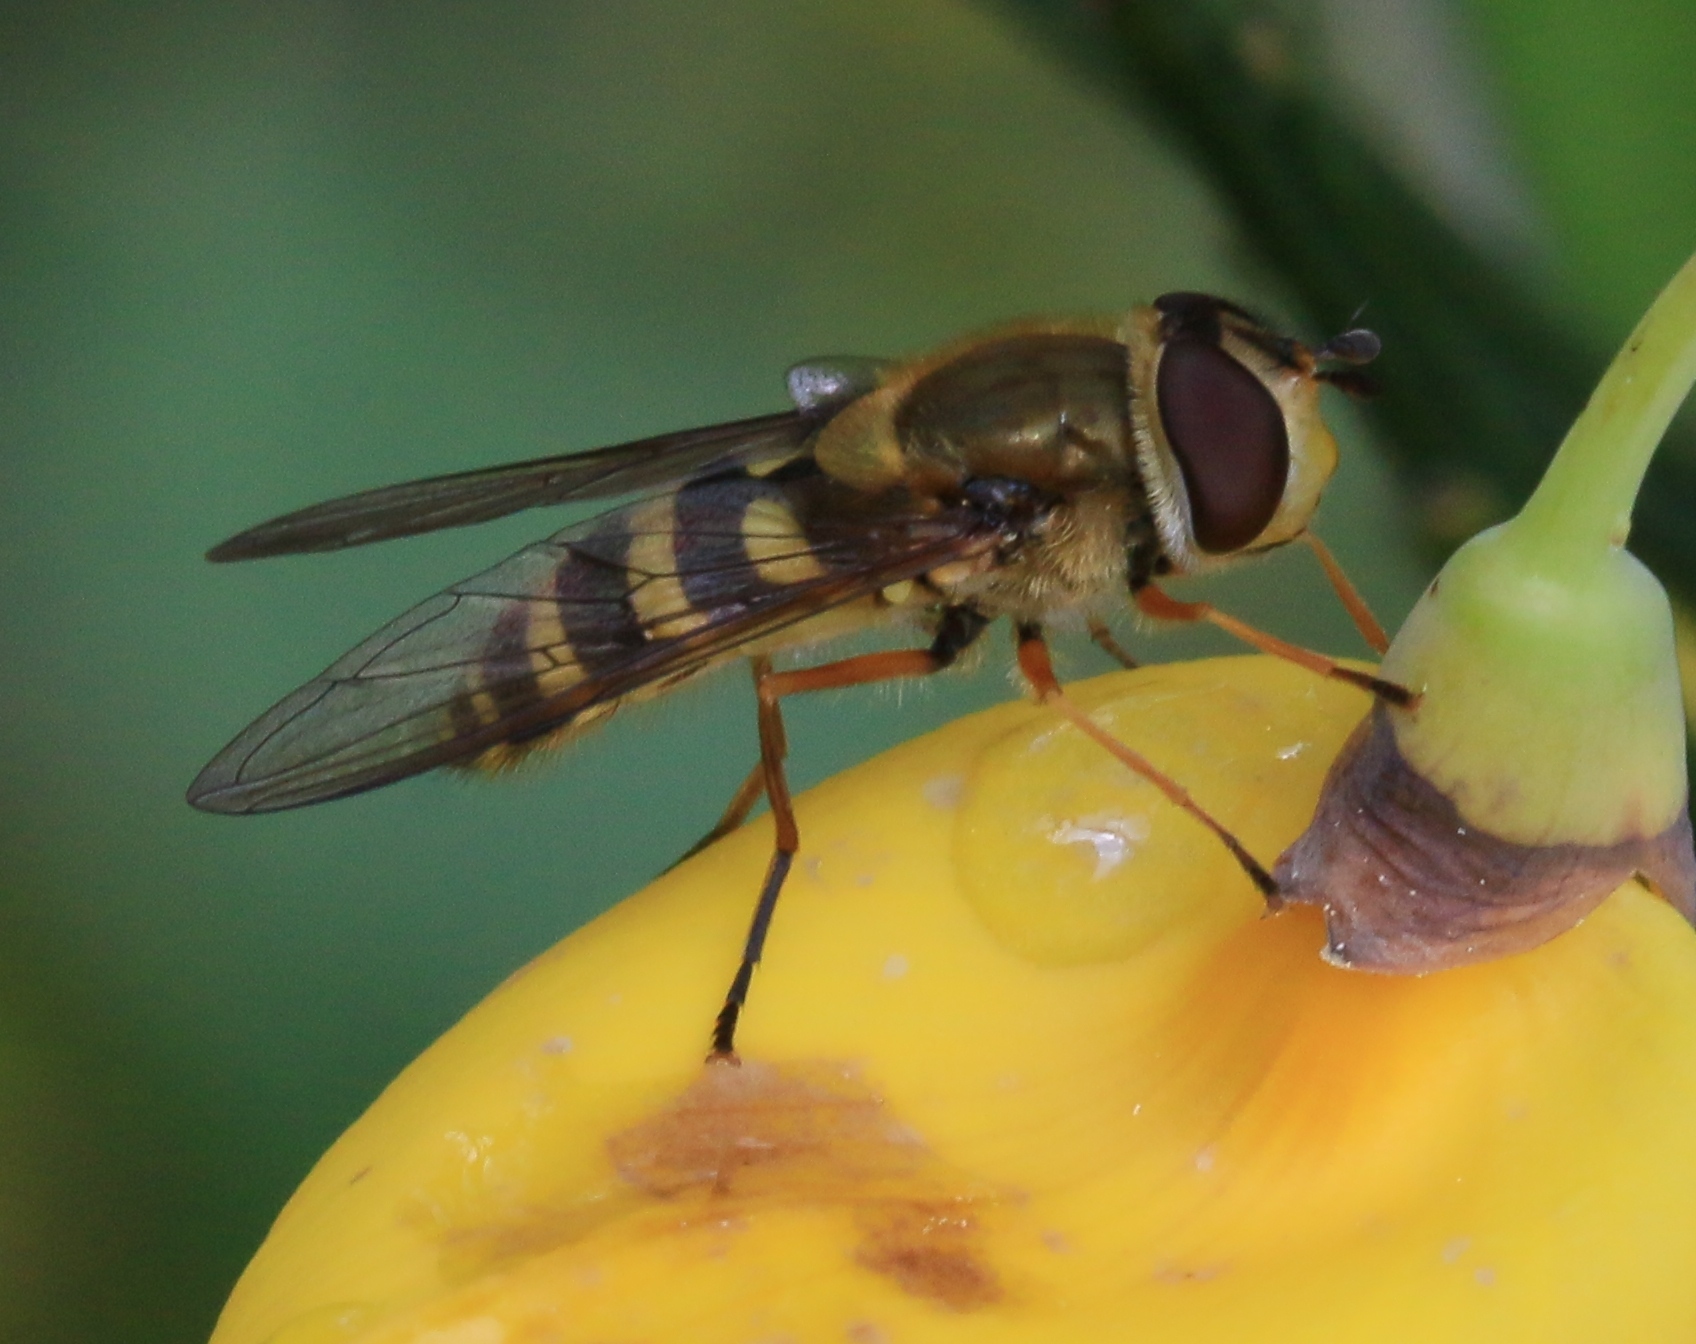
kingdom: Animalia
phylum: Arthropoda
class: Insecta
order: Diptera
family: Syrphidae
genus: Syrphus
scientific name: Syrphus ribesii
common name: Common flower fly
